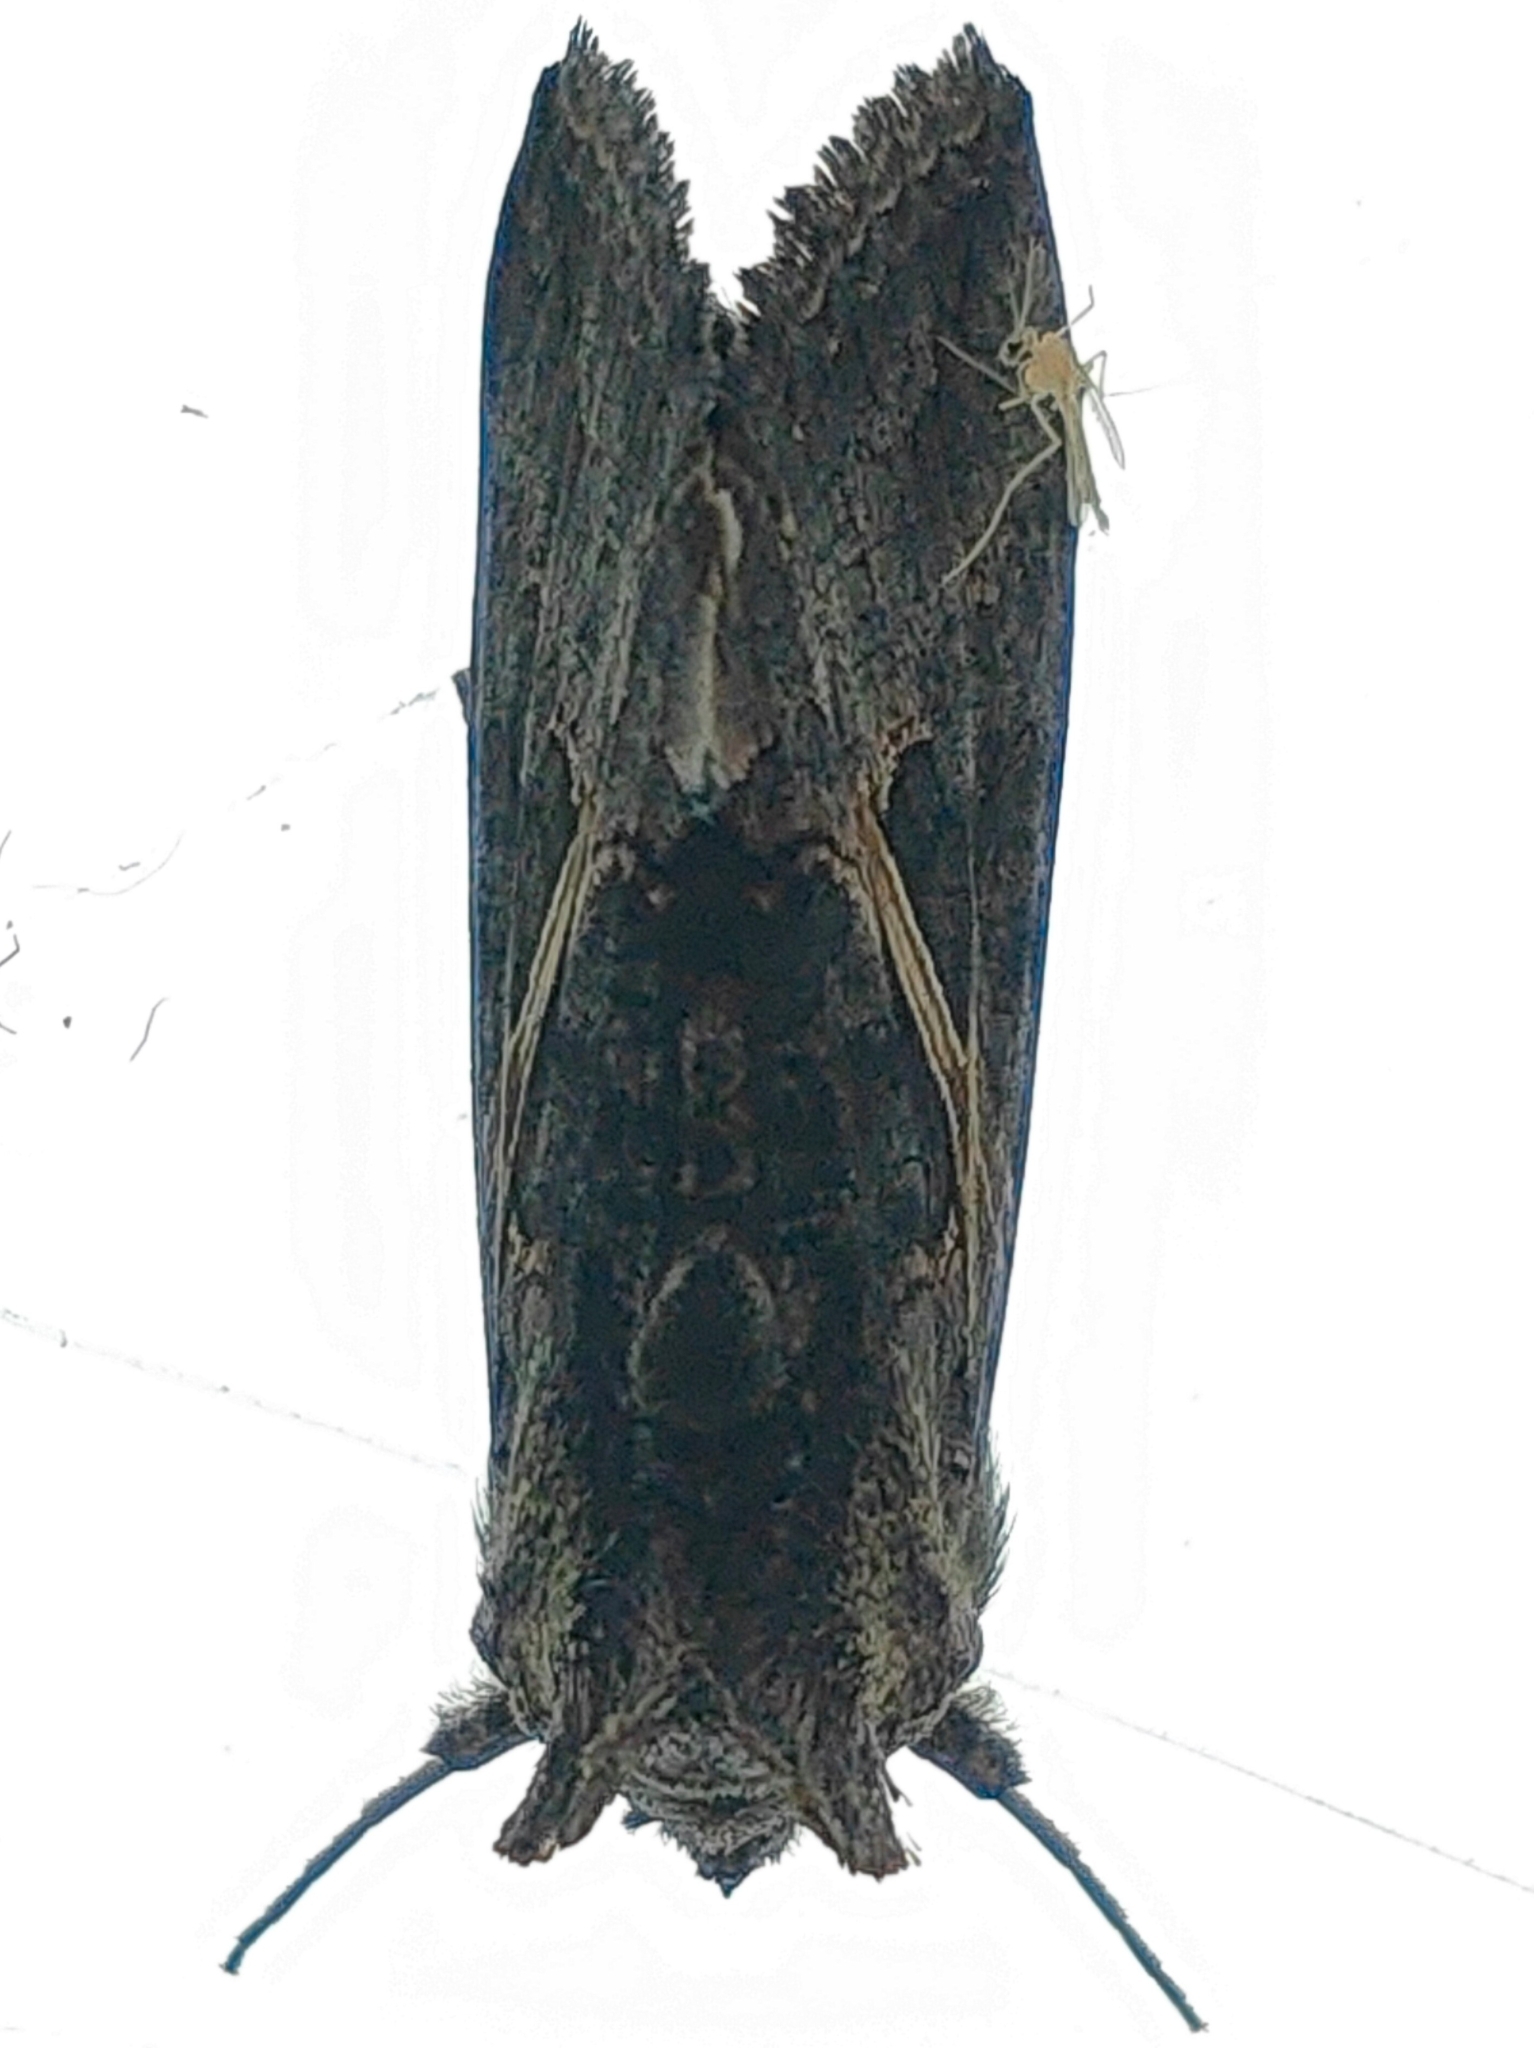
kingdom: Animalia
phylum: Arthropoda
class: Insecta
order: Lepidoptera
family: Noctuidae
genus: Ctenoplusia
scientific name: Ctenoplusia albostriata
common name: Moth
